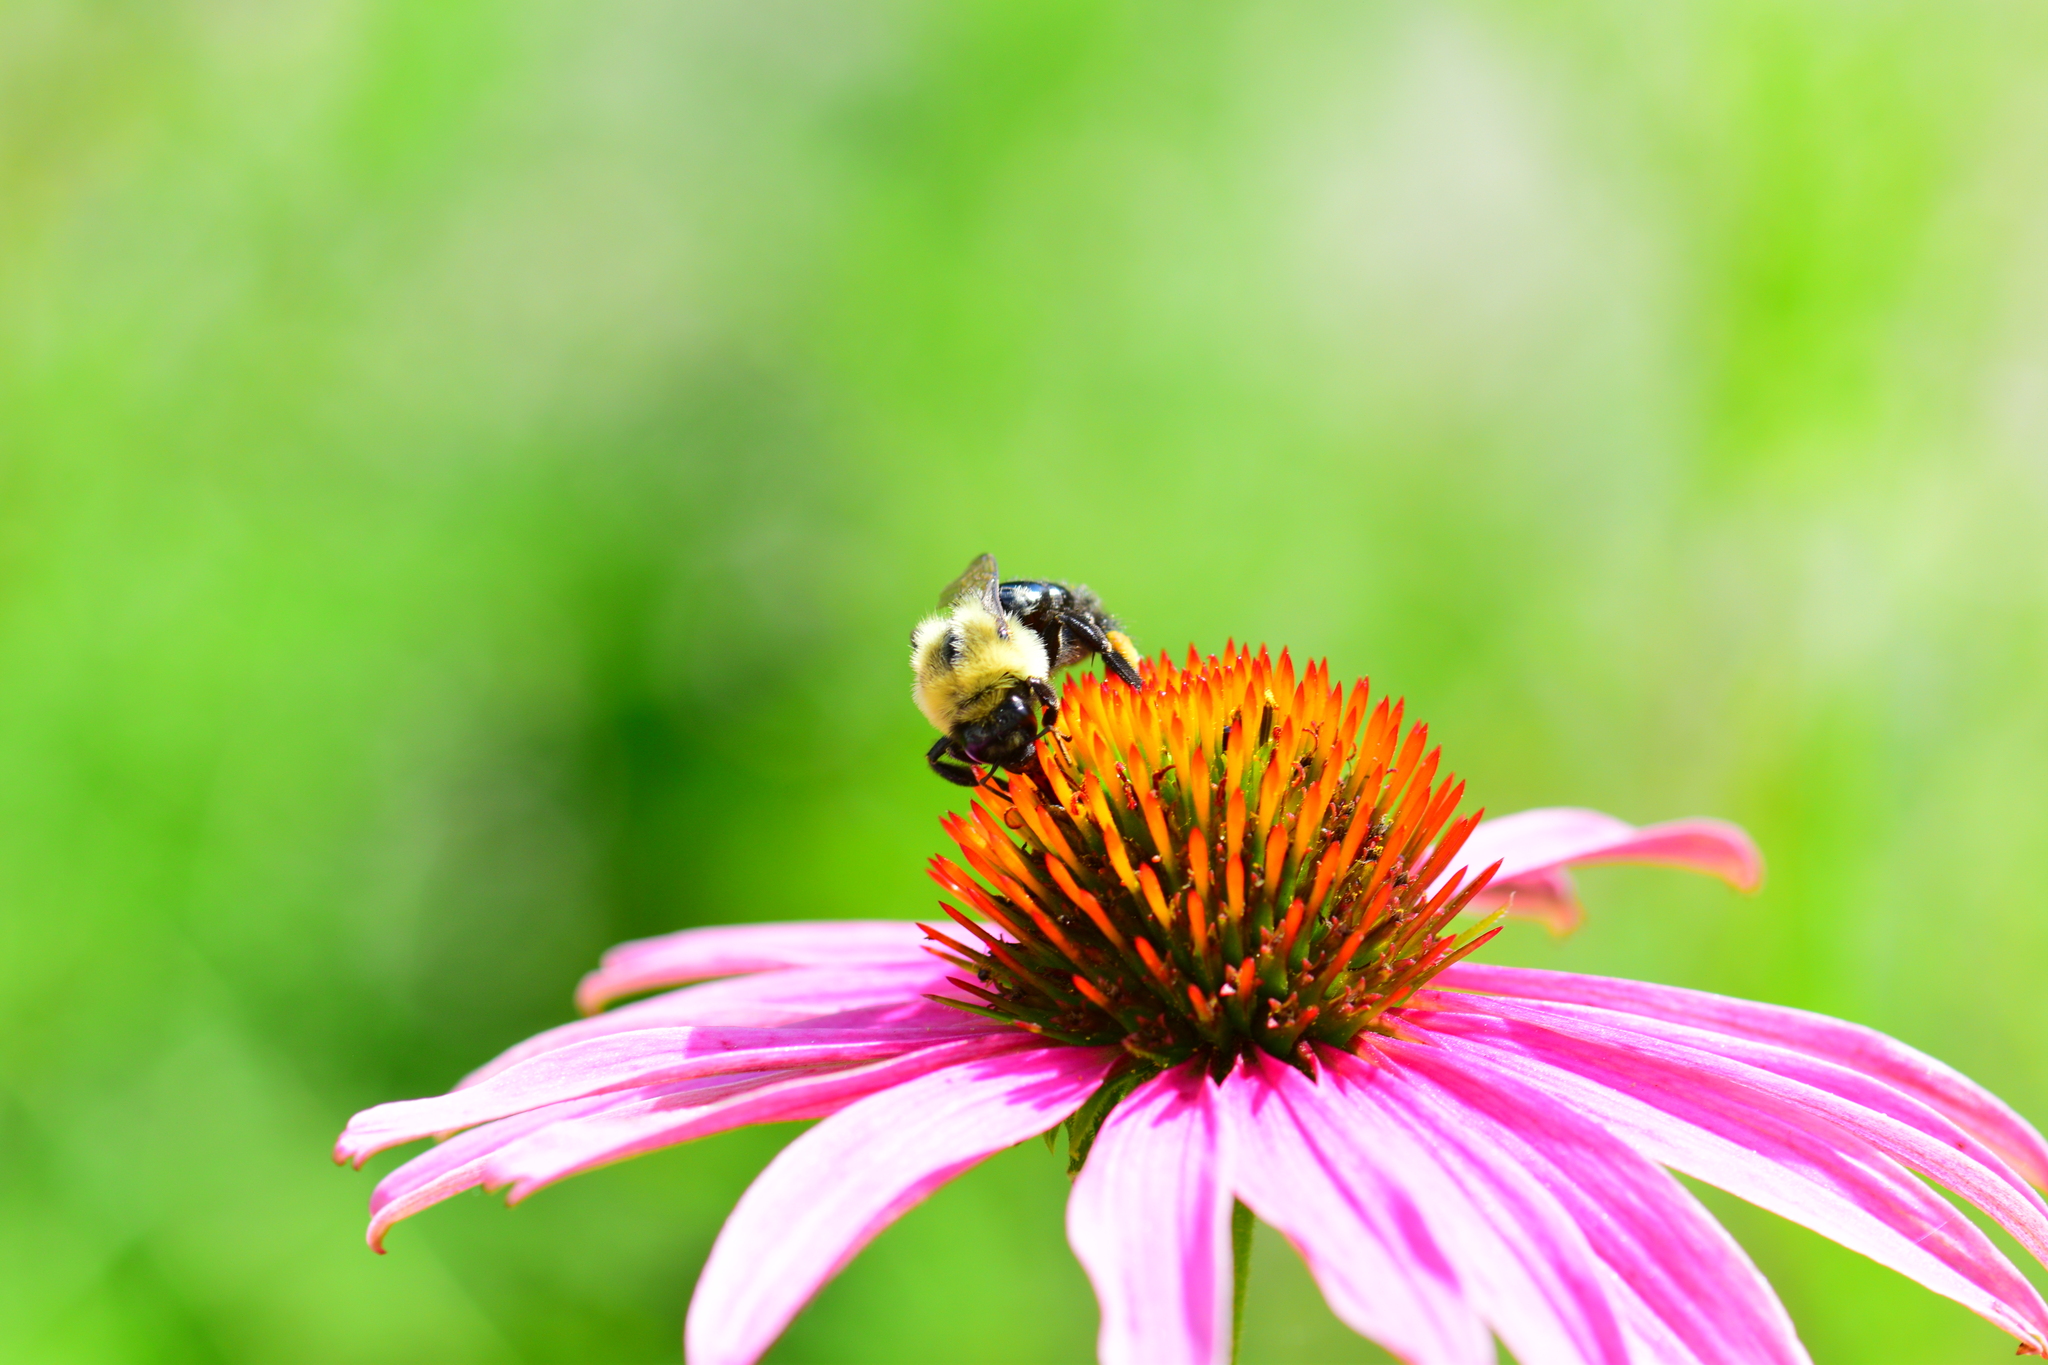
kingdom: Animalia
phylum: Arthropoda
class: Insecta
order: Hymenoptera
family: Apidae
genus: Bombus
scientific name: Bombus impatiens
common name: Common eastern bumble bee
